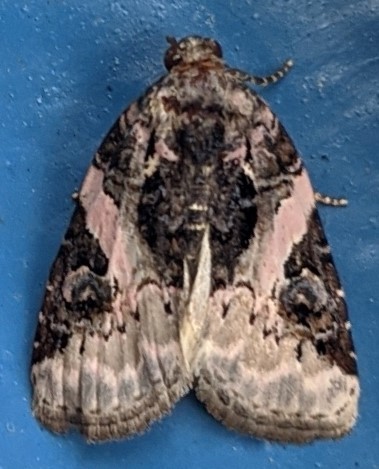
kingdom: Animalia
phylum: Arthropoda
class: Insecta
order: Lepidoptera
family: Noctuidae
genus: Pseudeustrotia
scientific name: Pseudeustrotia carneola
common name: Pink-barred lithacodia moth
